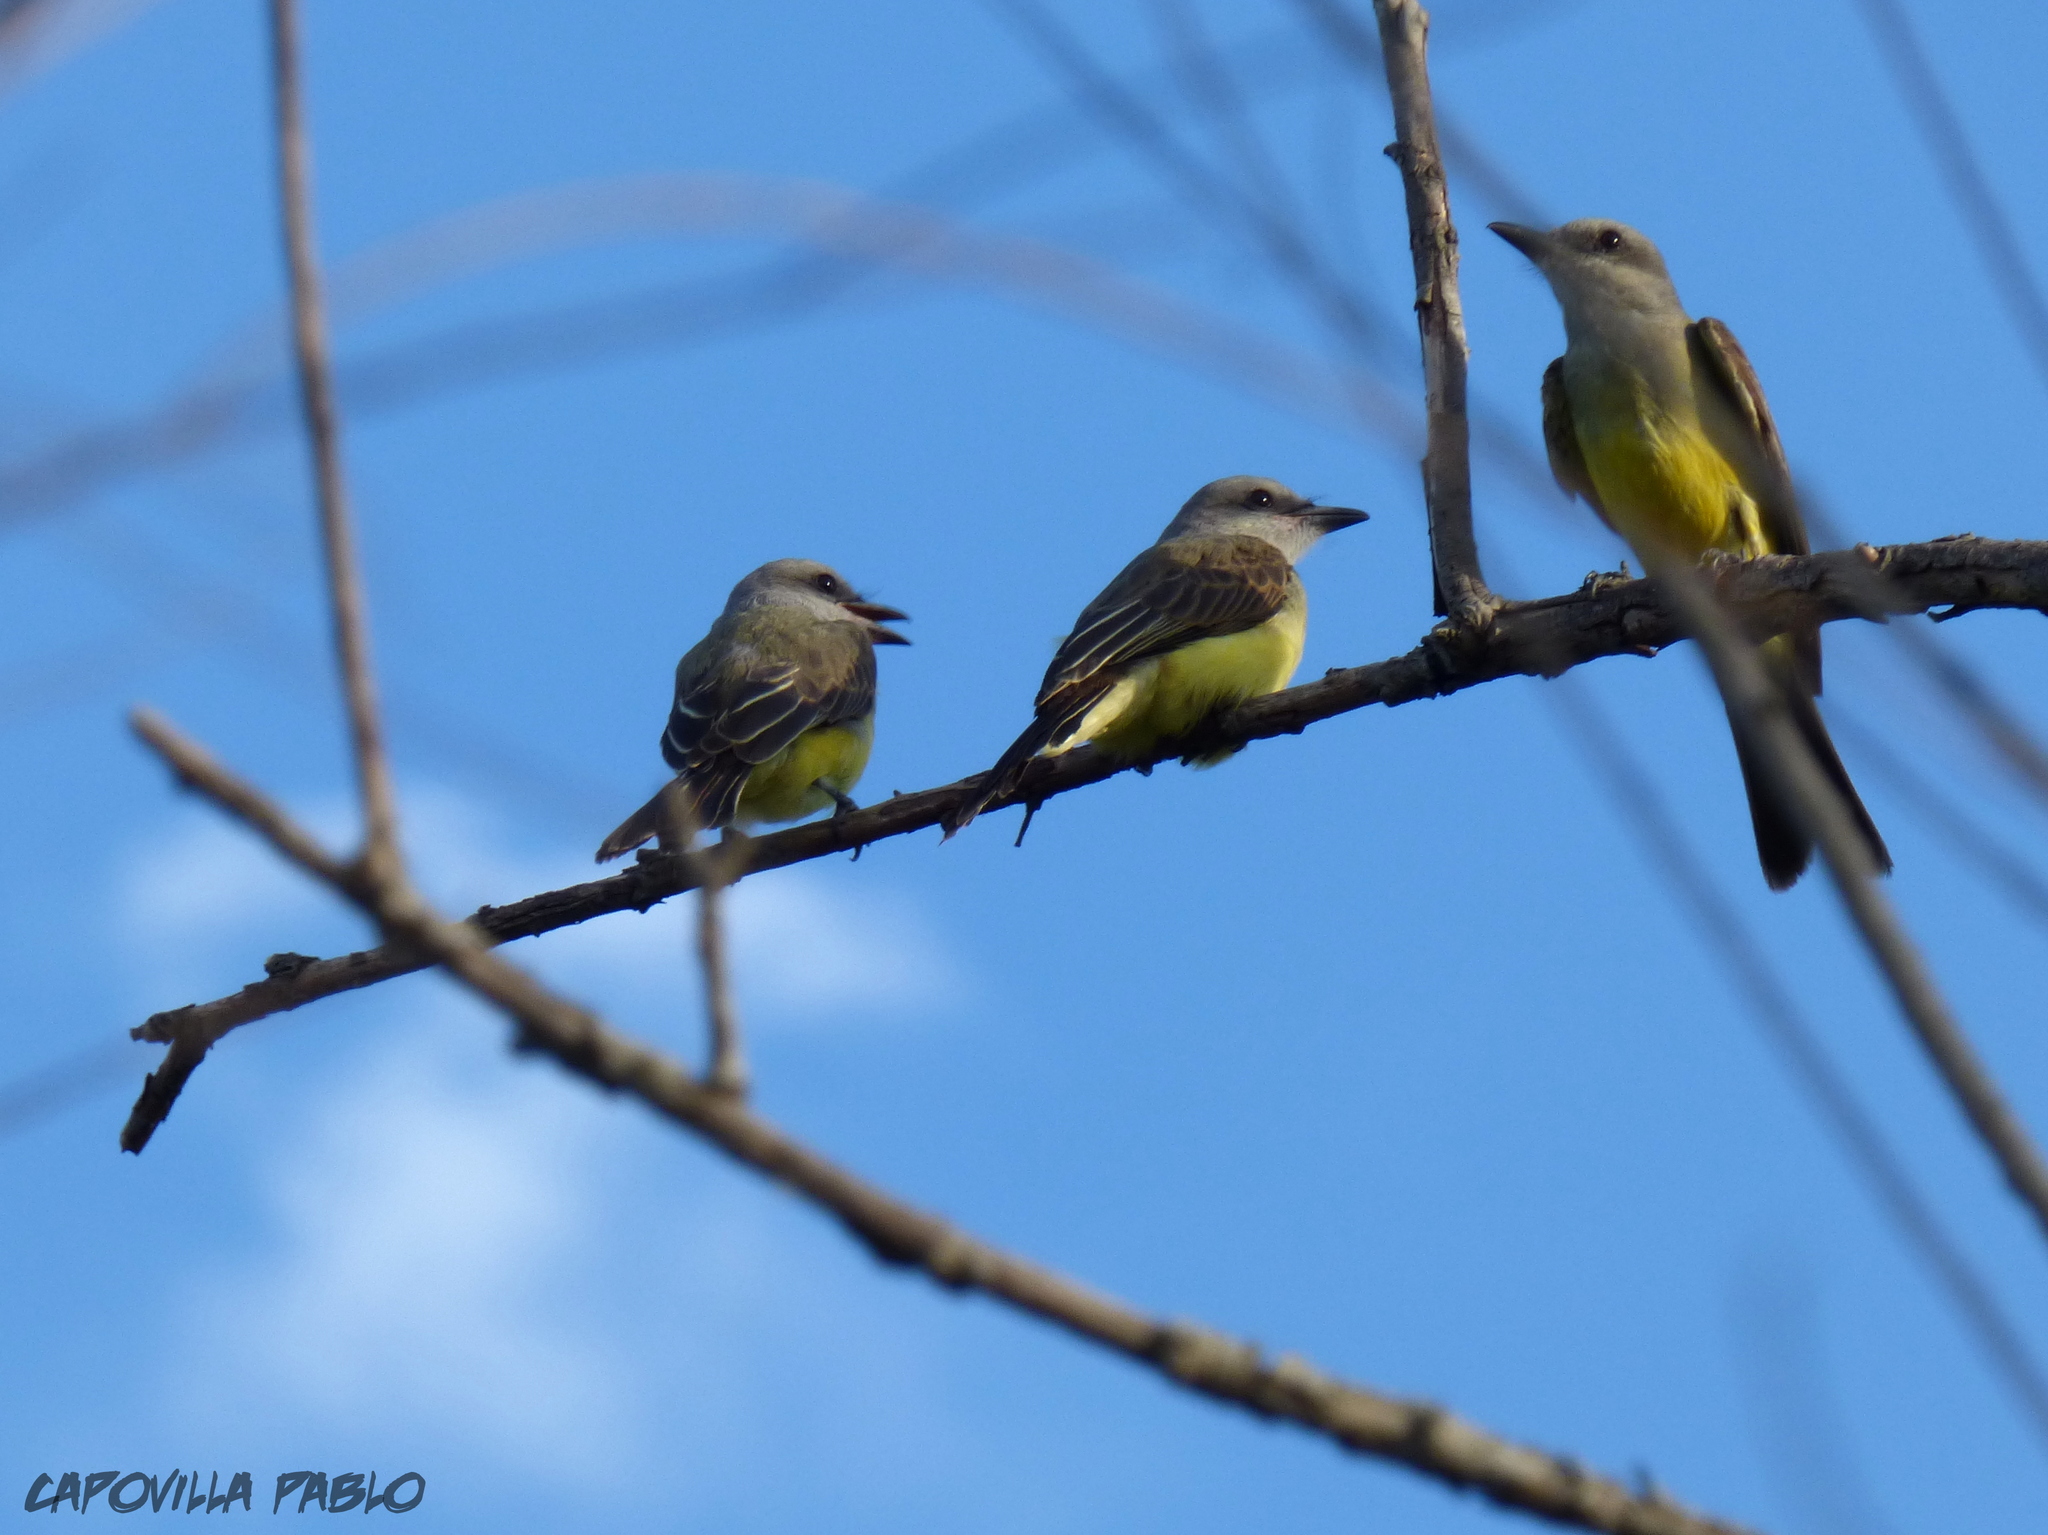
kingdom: Animalia
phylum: Chordata
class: Aves
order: Passeriformes
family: Tyrannidae
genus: Tyrannus
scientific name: Tyrannus melancholicus
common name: Tropical kingbird
